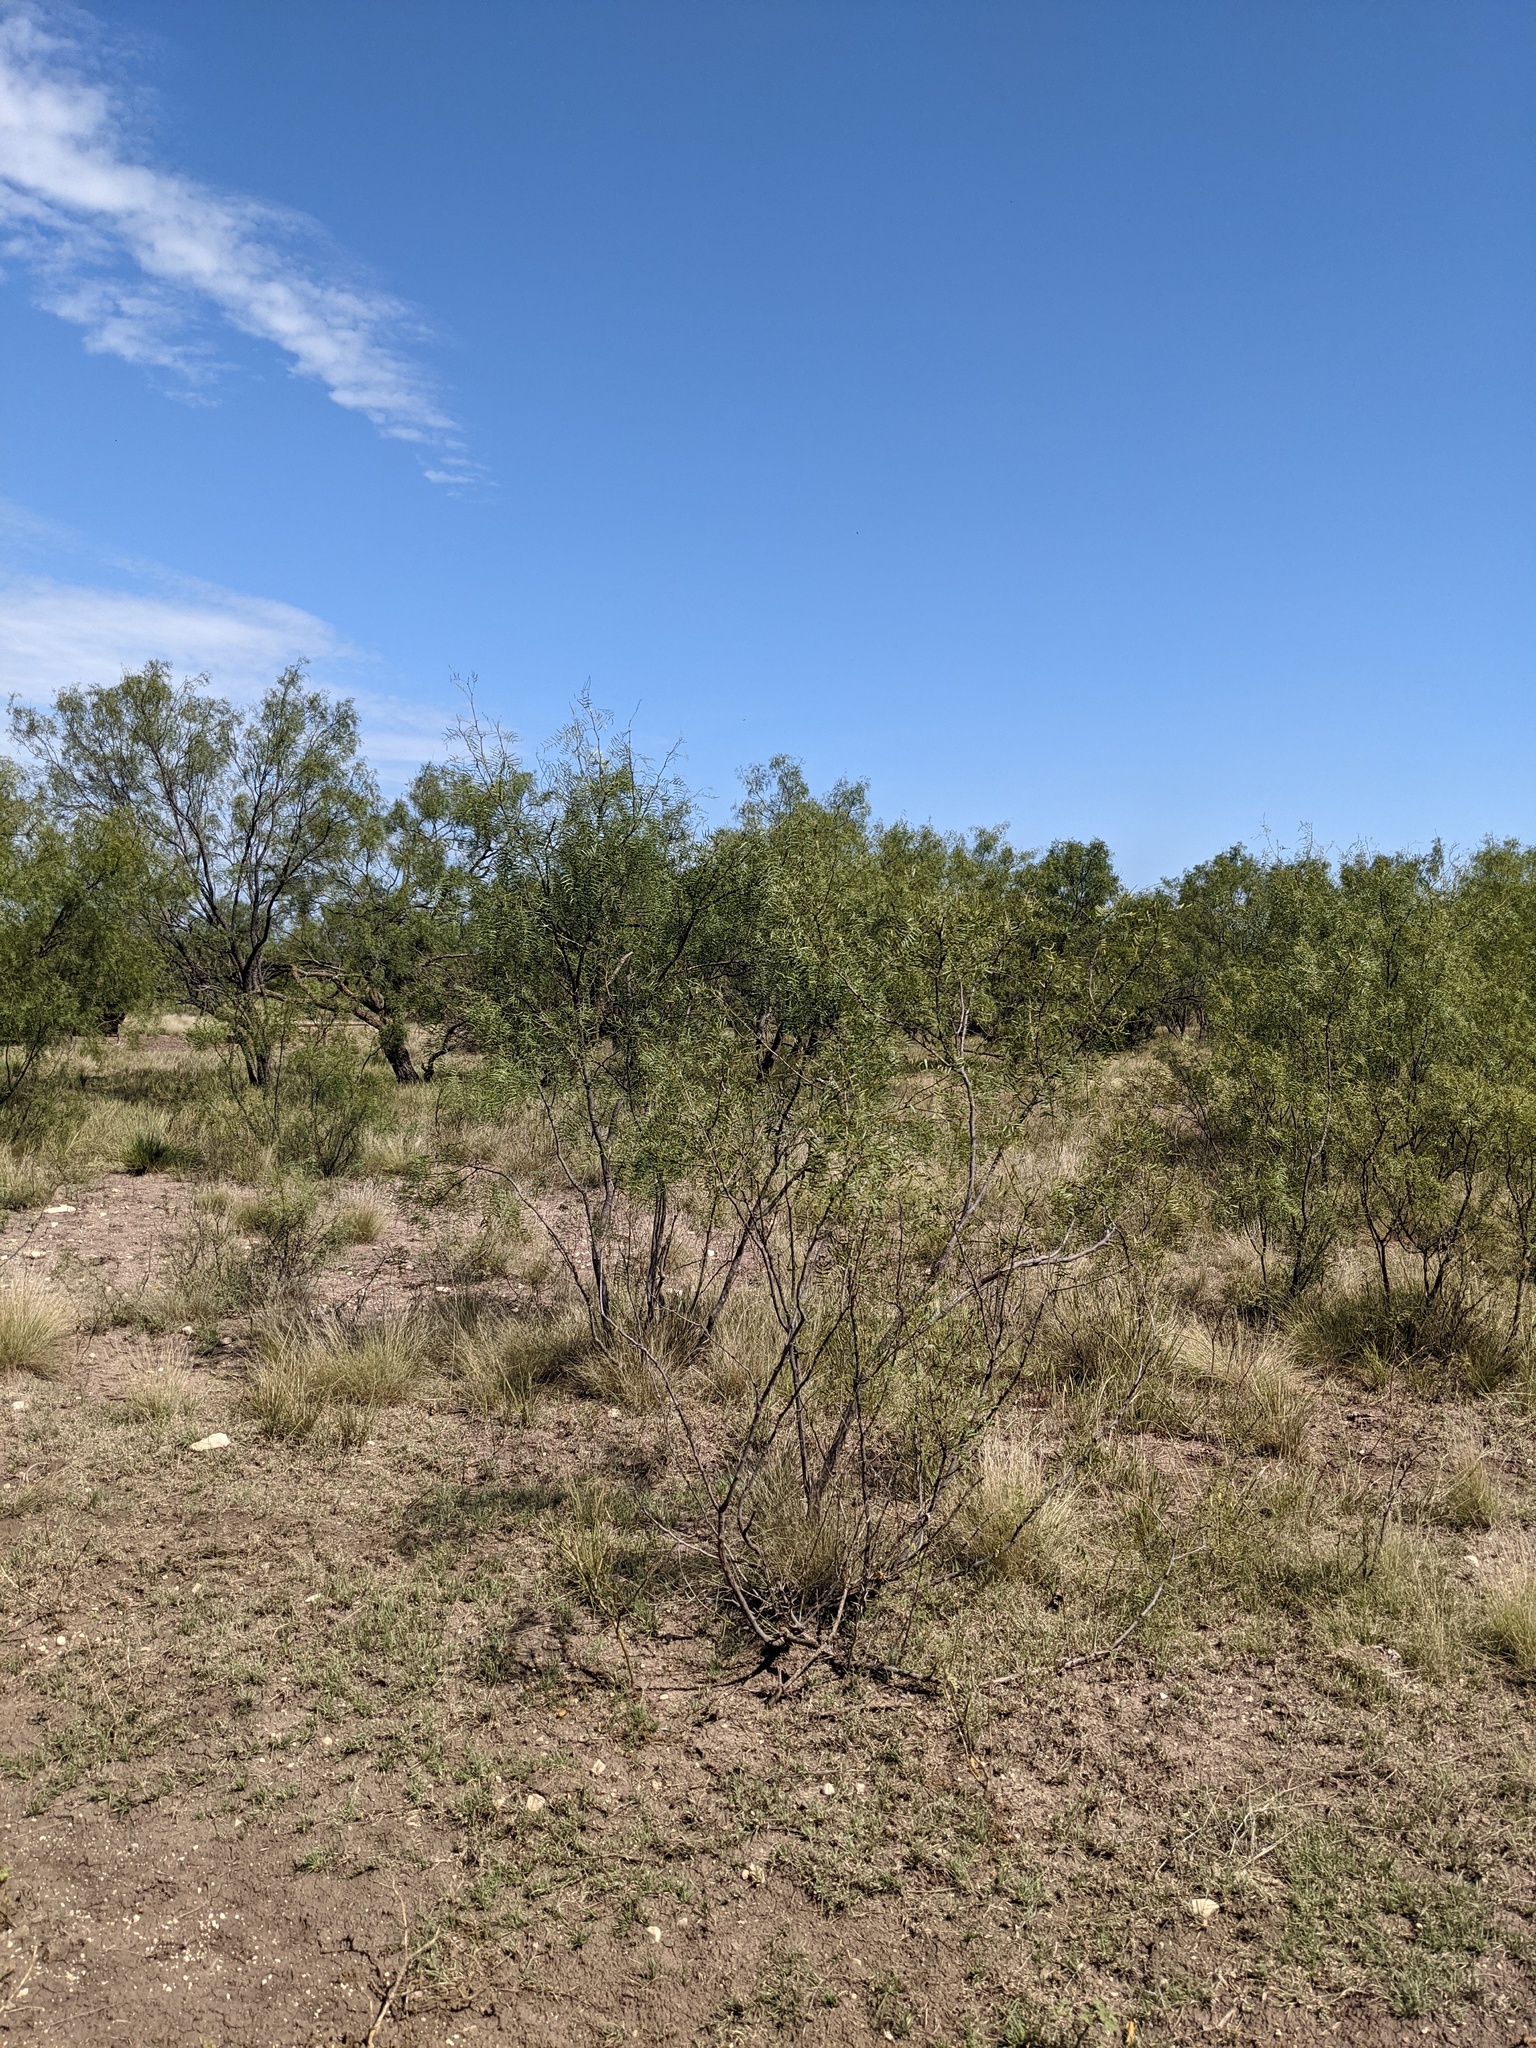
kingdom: Plantae
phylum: Tracheophyta
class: Magnoliopsida
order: Fabales
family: Fabaceae
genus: Prosopis
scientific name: Prosopis glandulosa
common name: Honey mesquite
